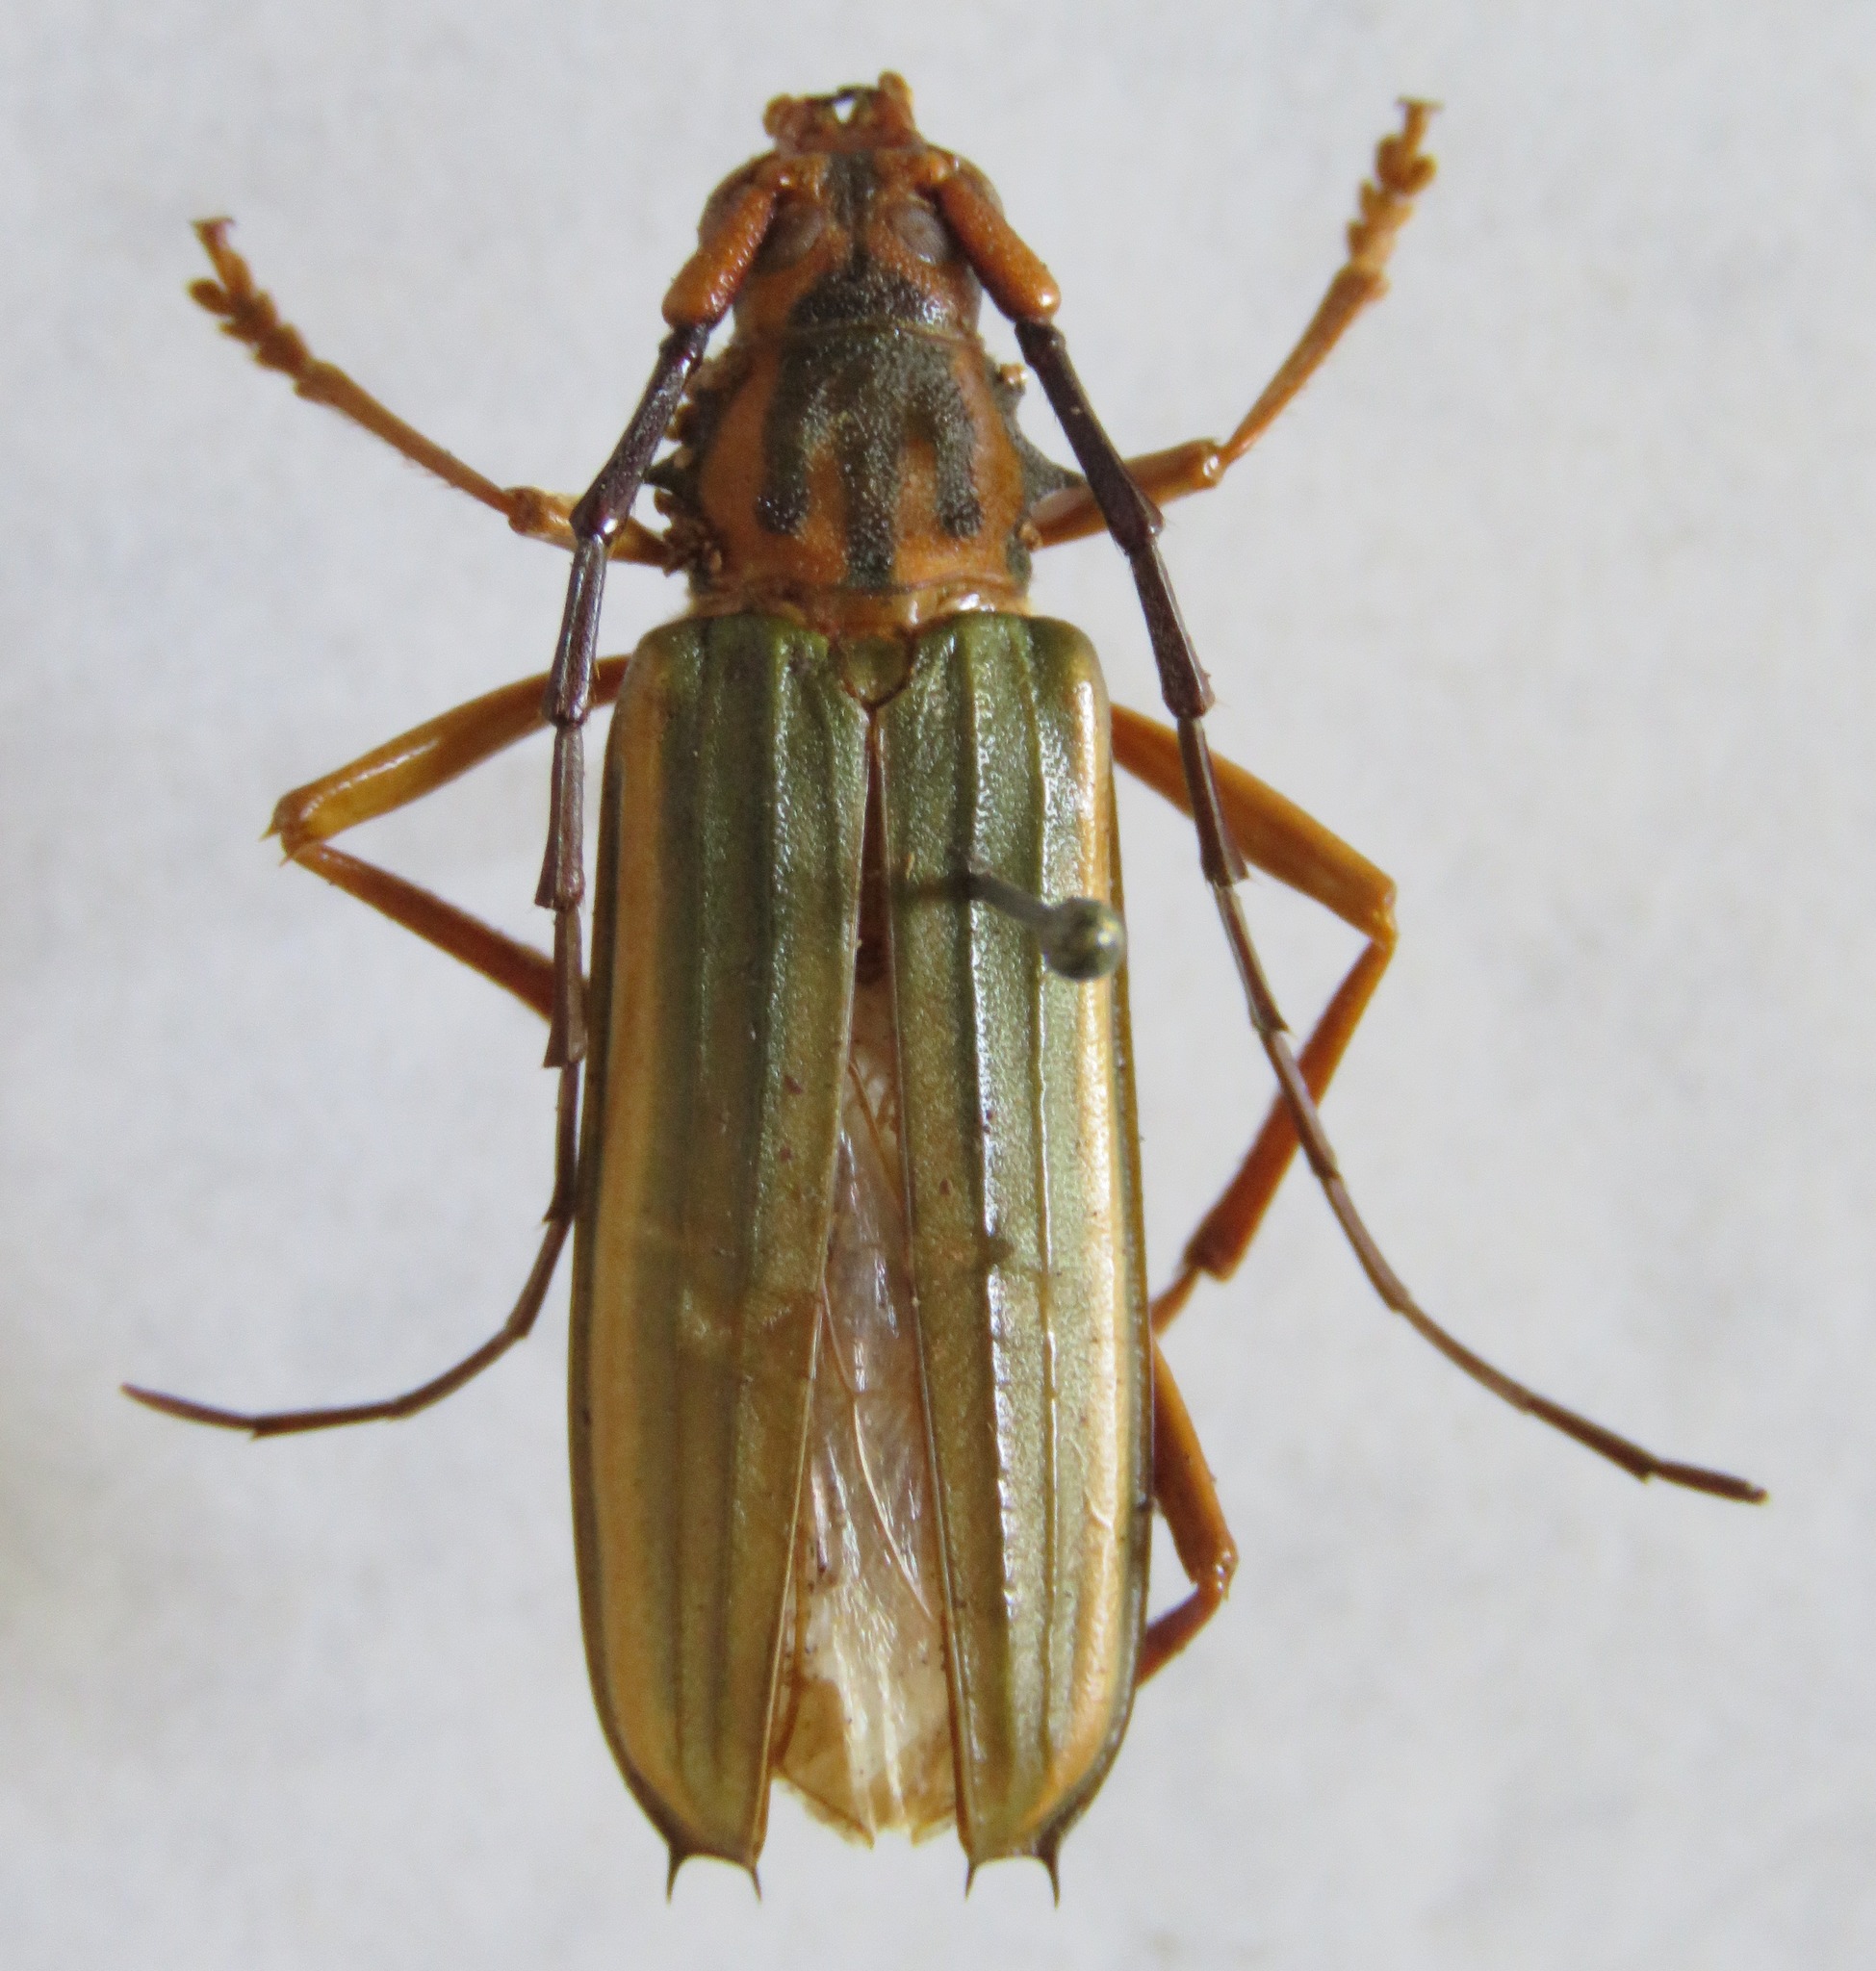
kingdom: Animalia
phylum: Arthropoda
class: Insecta
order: Coleoptera
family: Cerambycidae
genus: Chlorida
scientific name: Chlorida festiva
